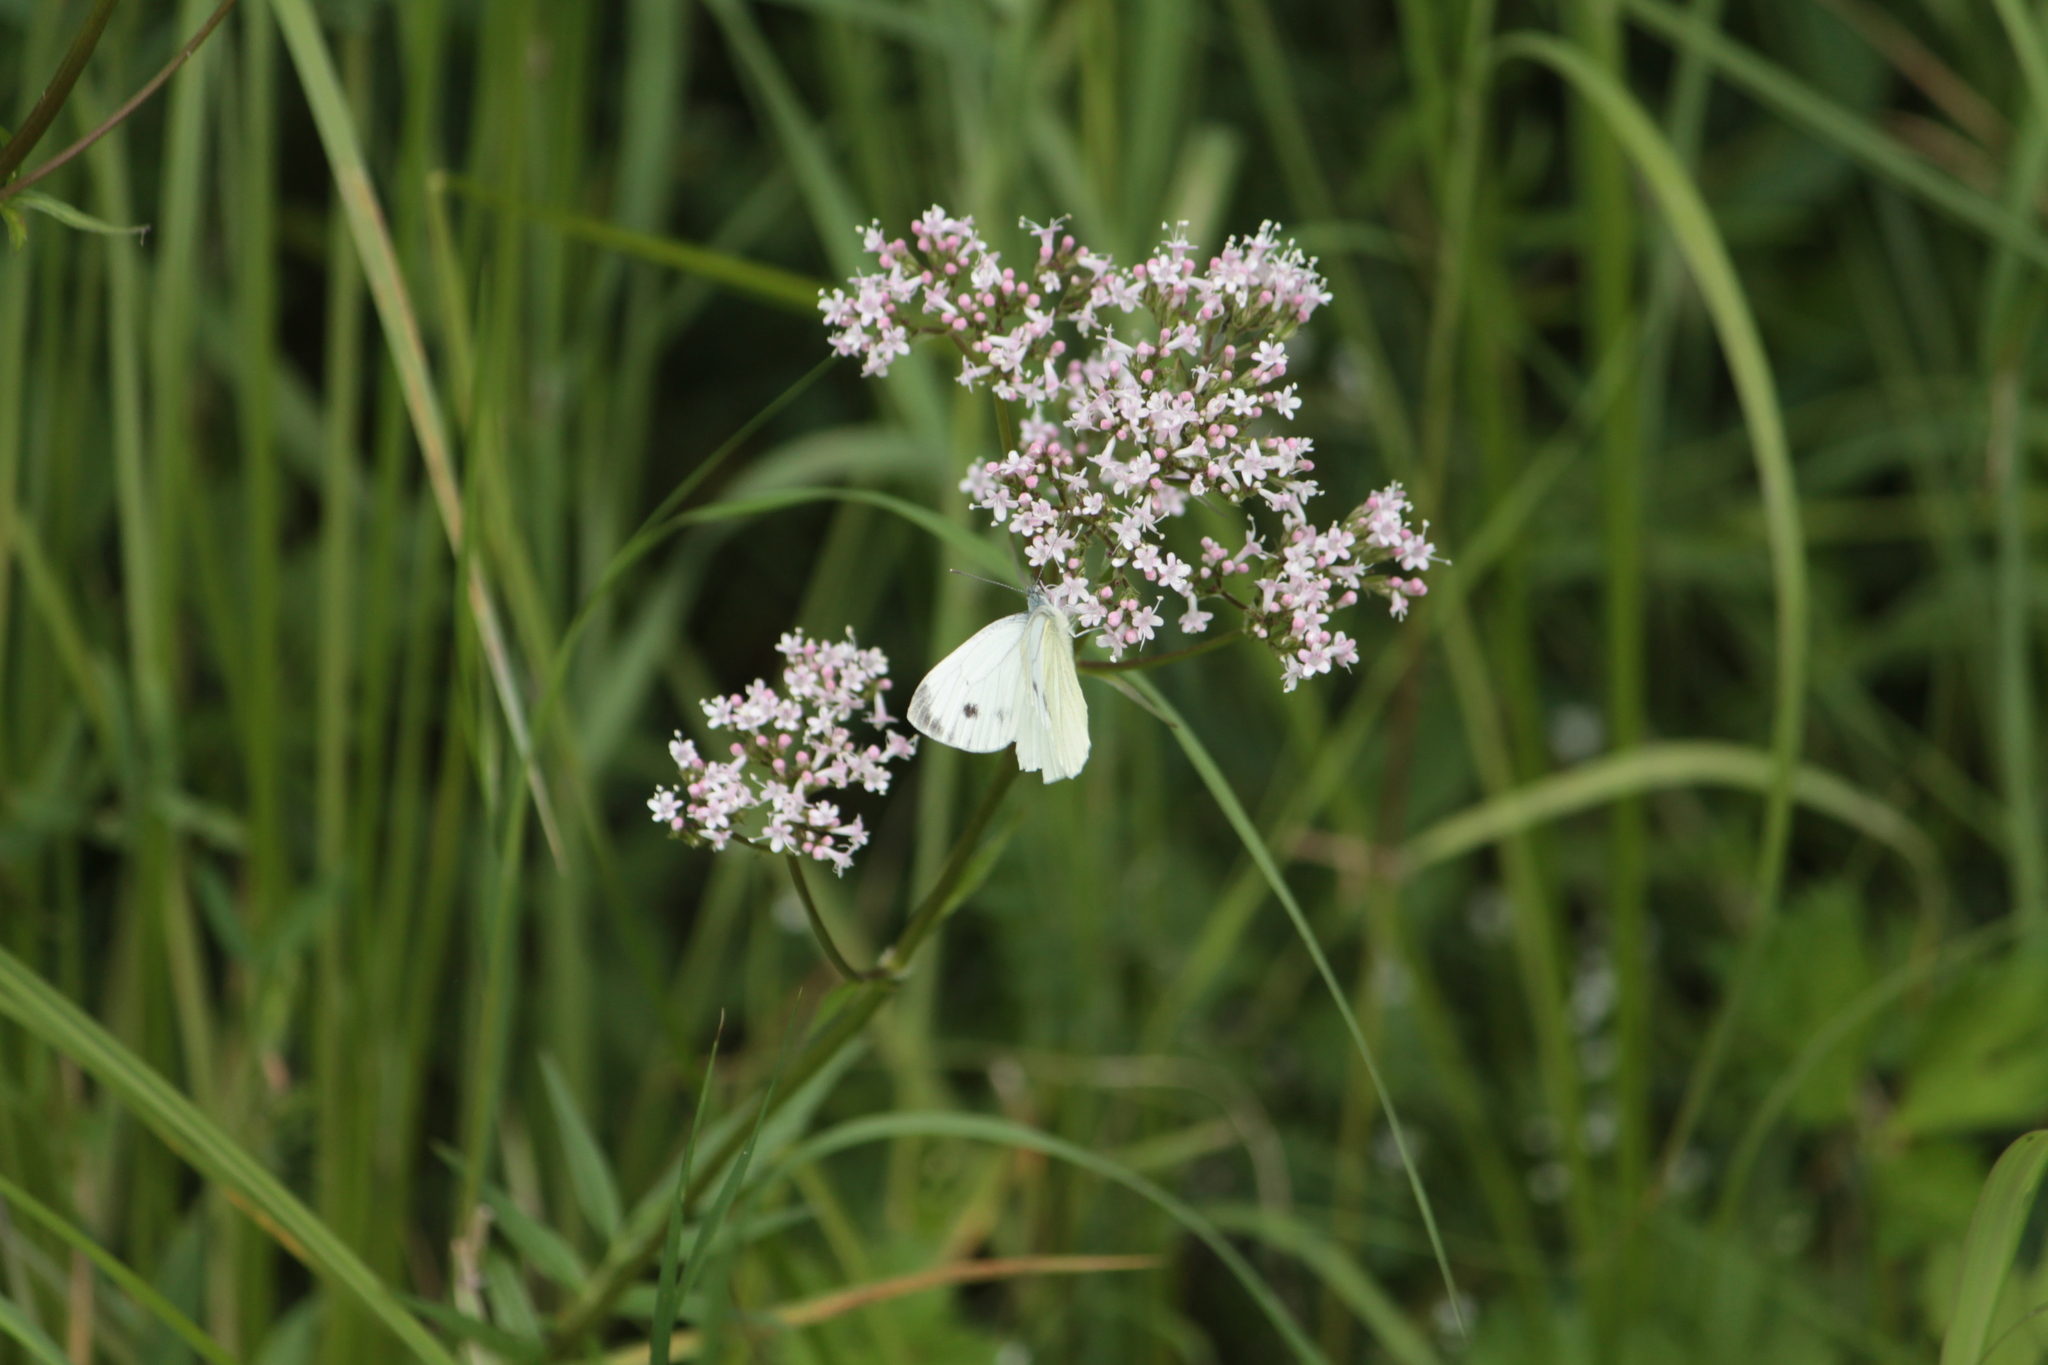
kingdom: Animalia
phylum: Arthropoda
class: Insecta
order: Lepidoptera
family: Pieridae
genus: Pieris
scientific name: Pieris napi
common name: Green-veined white
